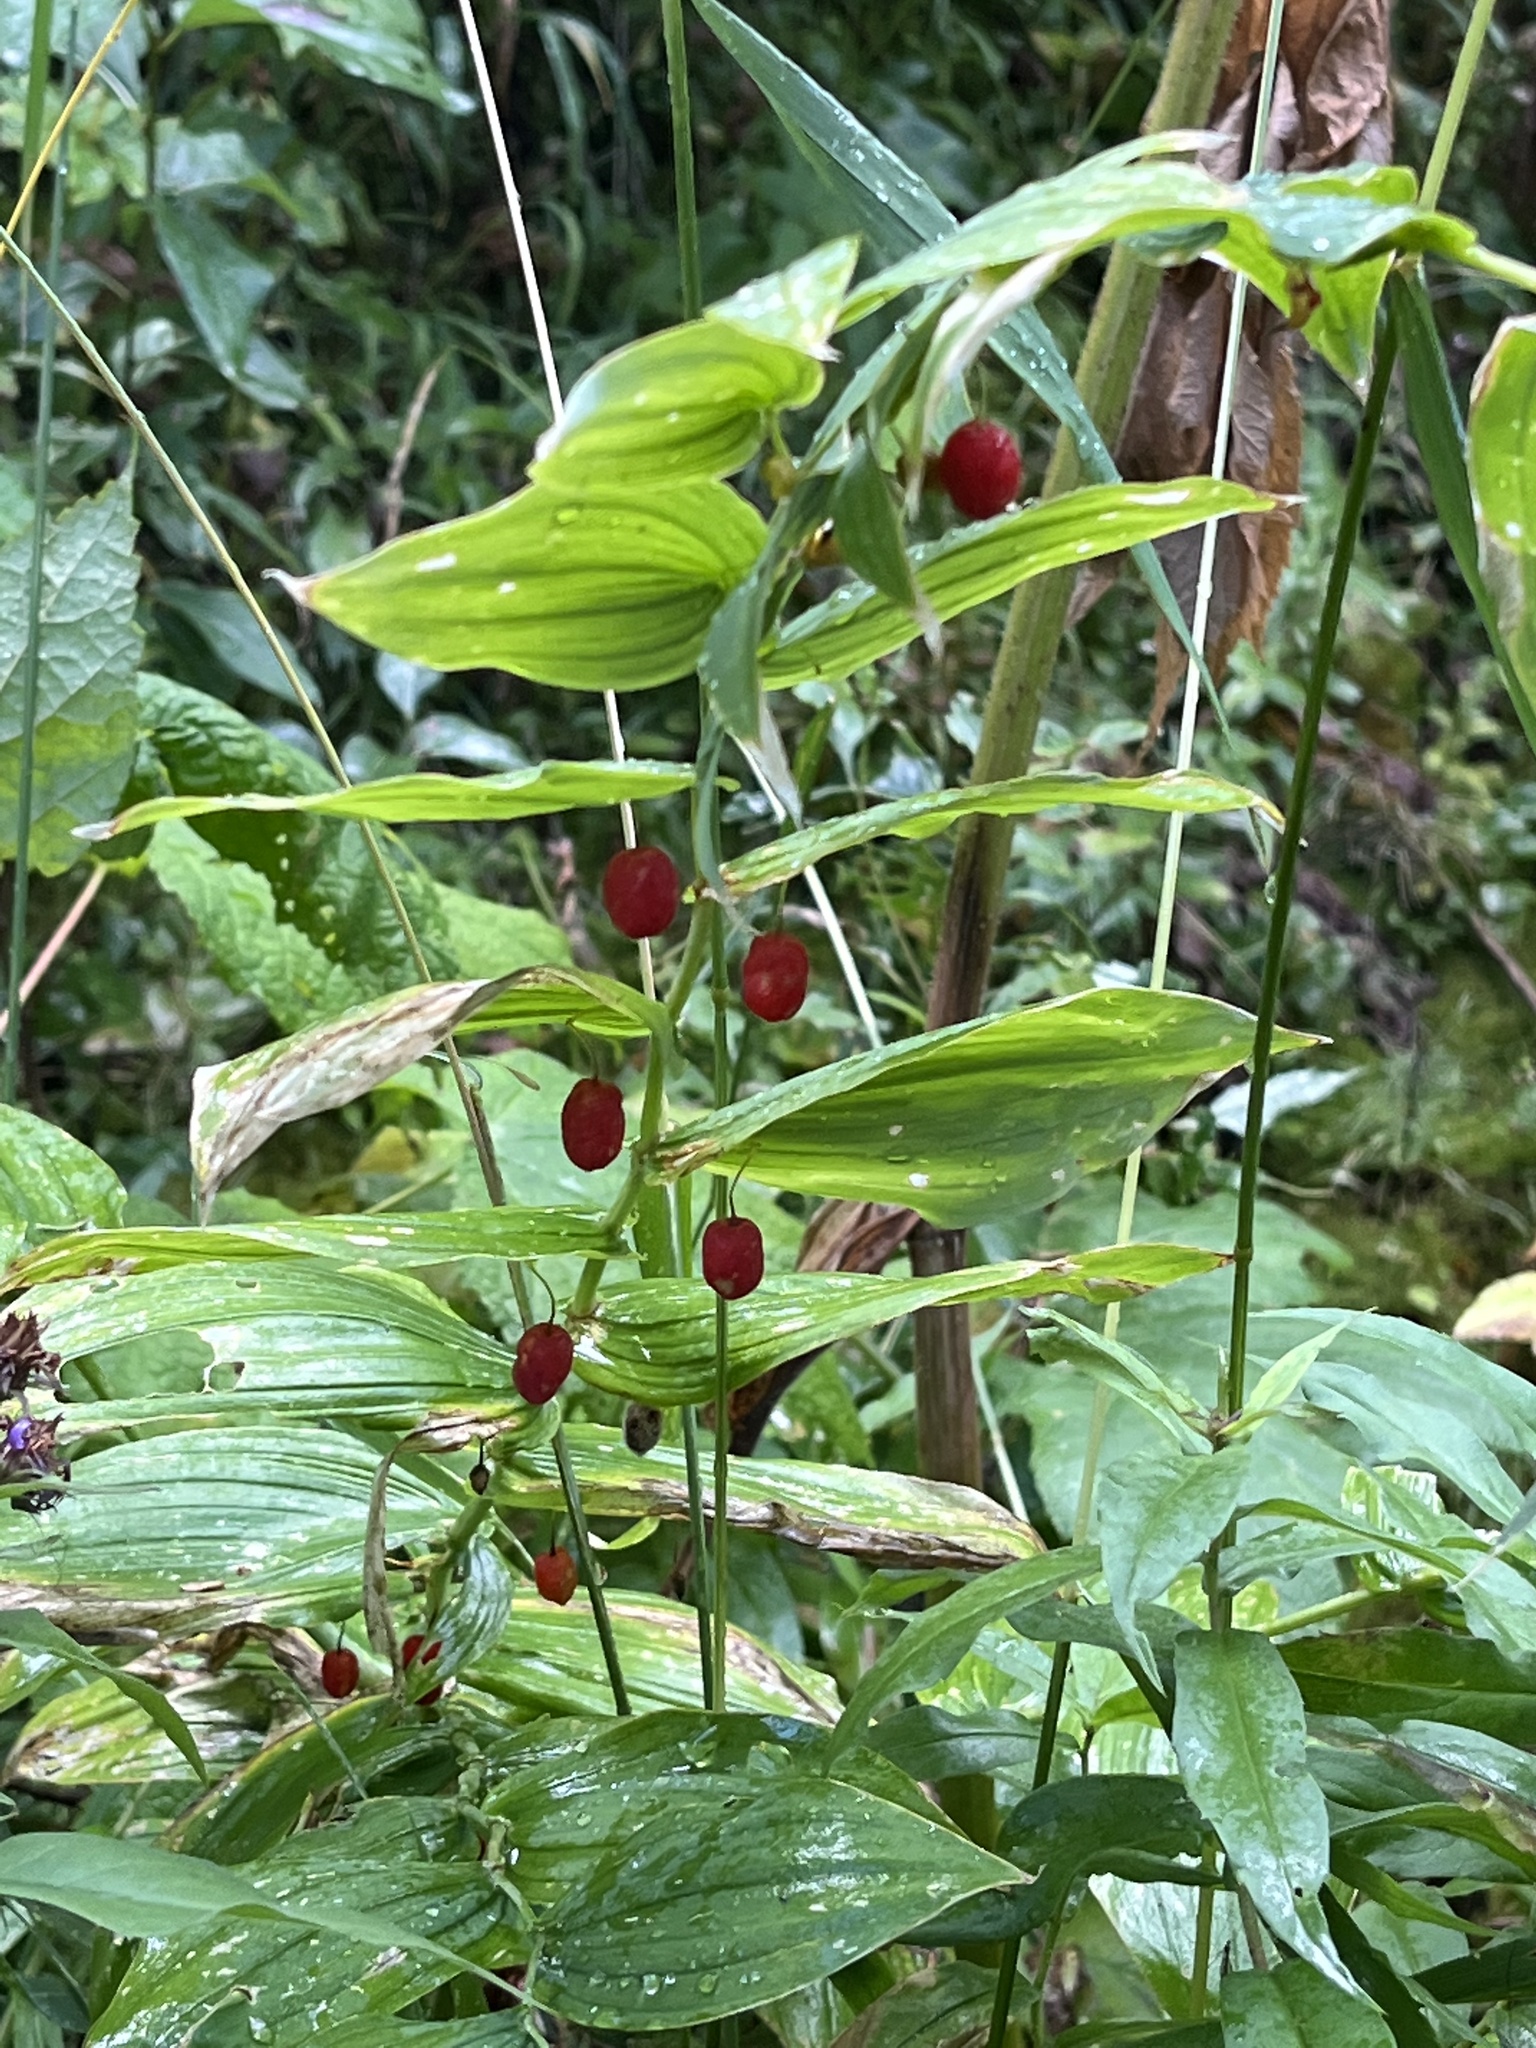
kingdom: Plantae
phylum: Tracheophyta
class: Liliopsida
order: Liliales
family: Liliaceae
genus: Streptopus
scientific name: Streptopus amplexifolius
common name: Clasp twisted stalk
